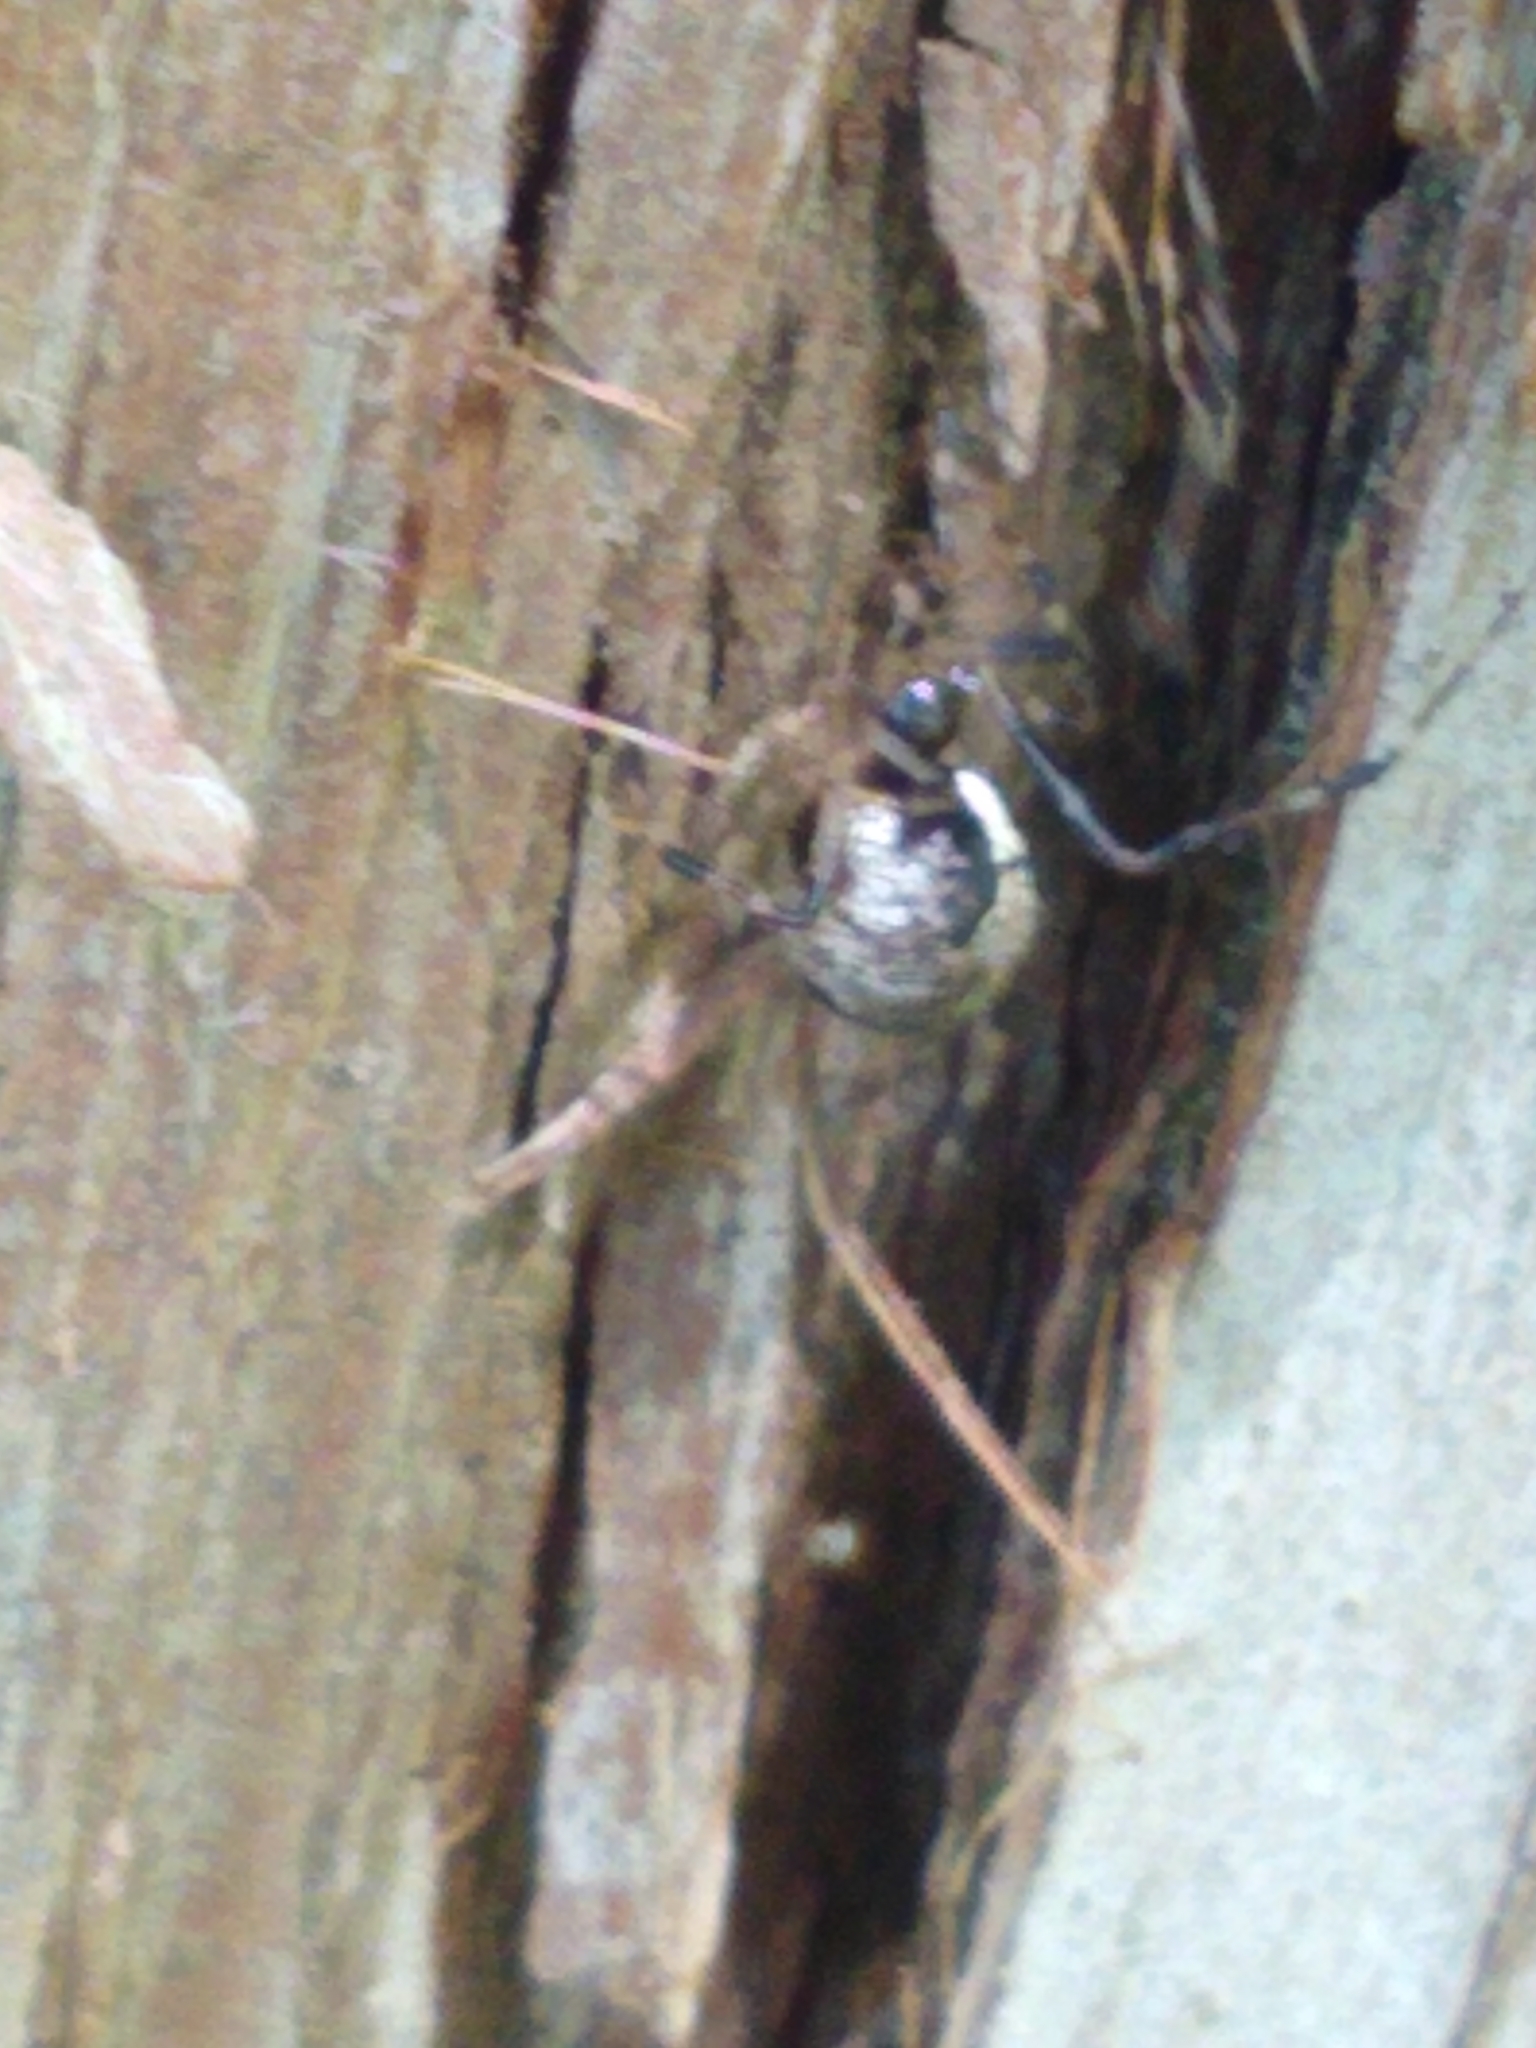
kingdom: Animalia
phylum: Arthropoda
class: Arachnida
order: Araneae
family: Theridiidae
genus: Yunohamella
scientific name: Yunohamella lyrica
